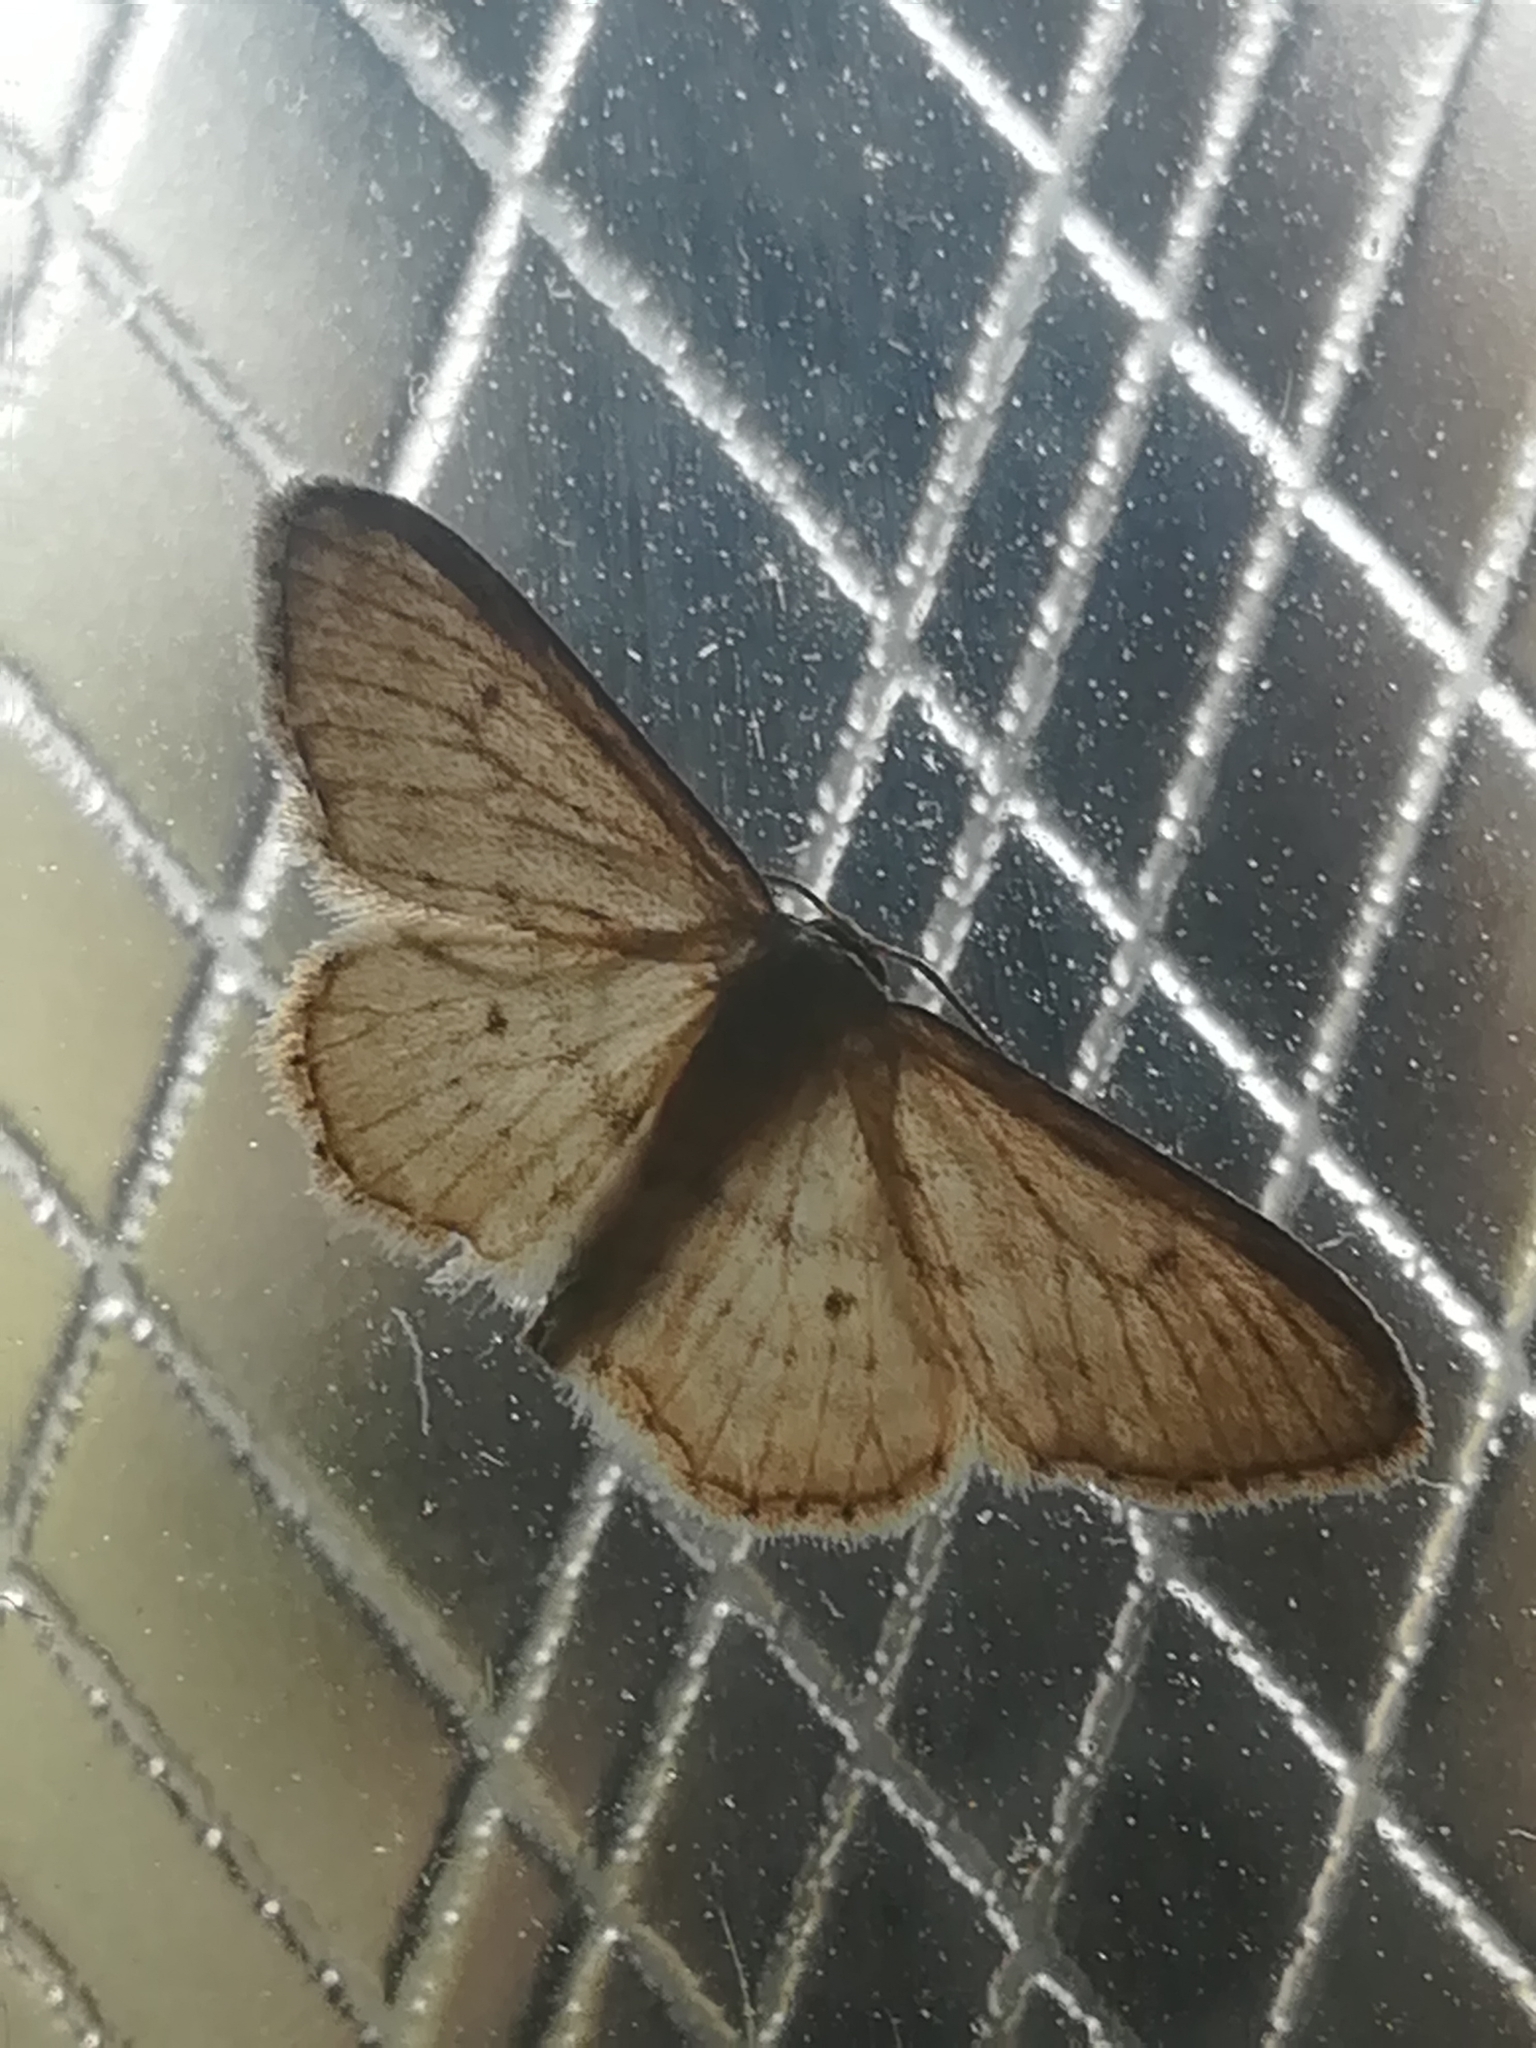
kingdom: Animalia
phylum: Arthropoda
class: Insecta
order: Lepidoptera
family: Geometridae
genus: Idaea
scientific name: Idaea seriata
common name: Small dusty wave
